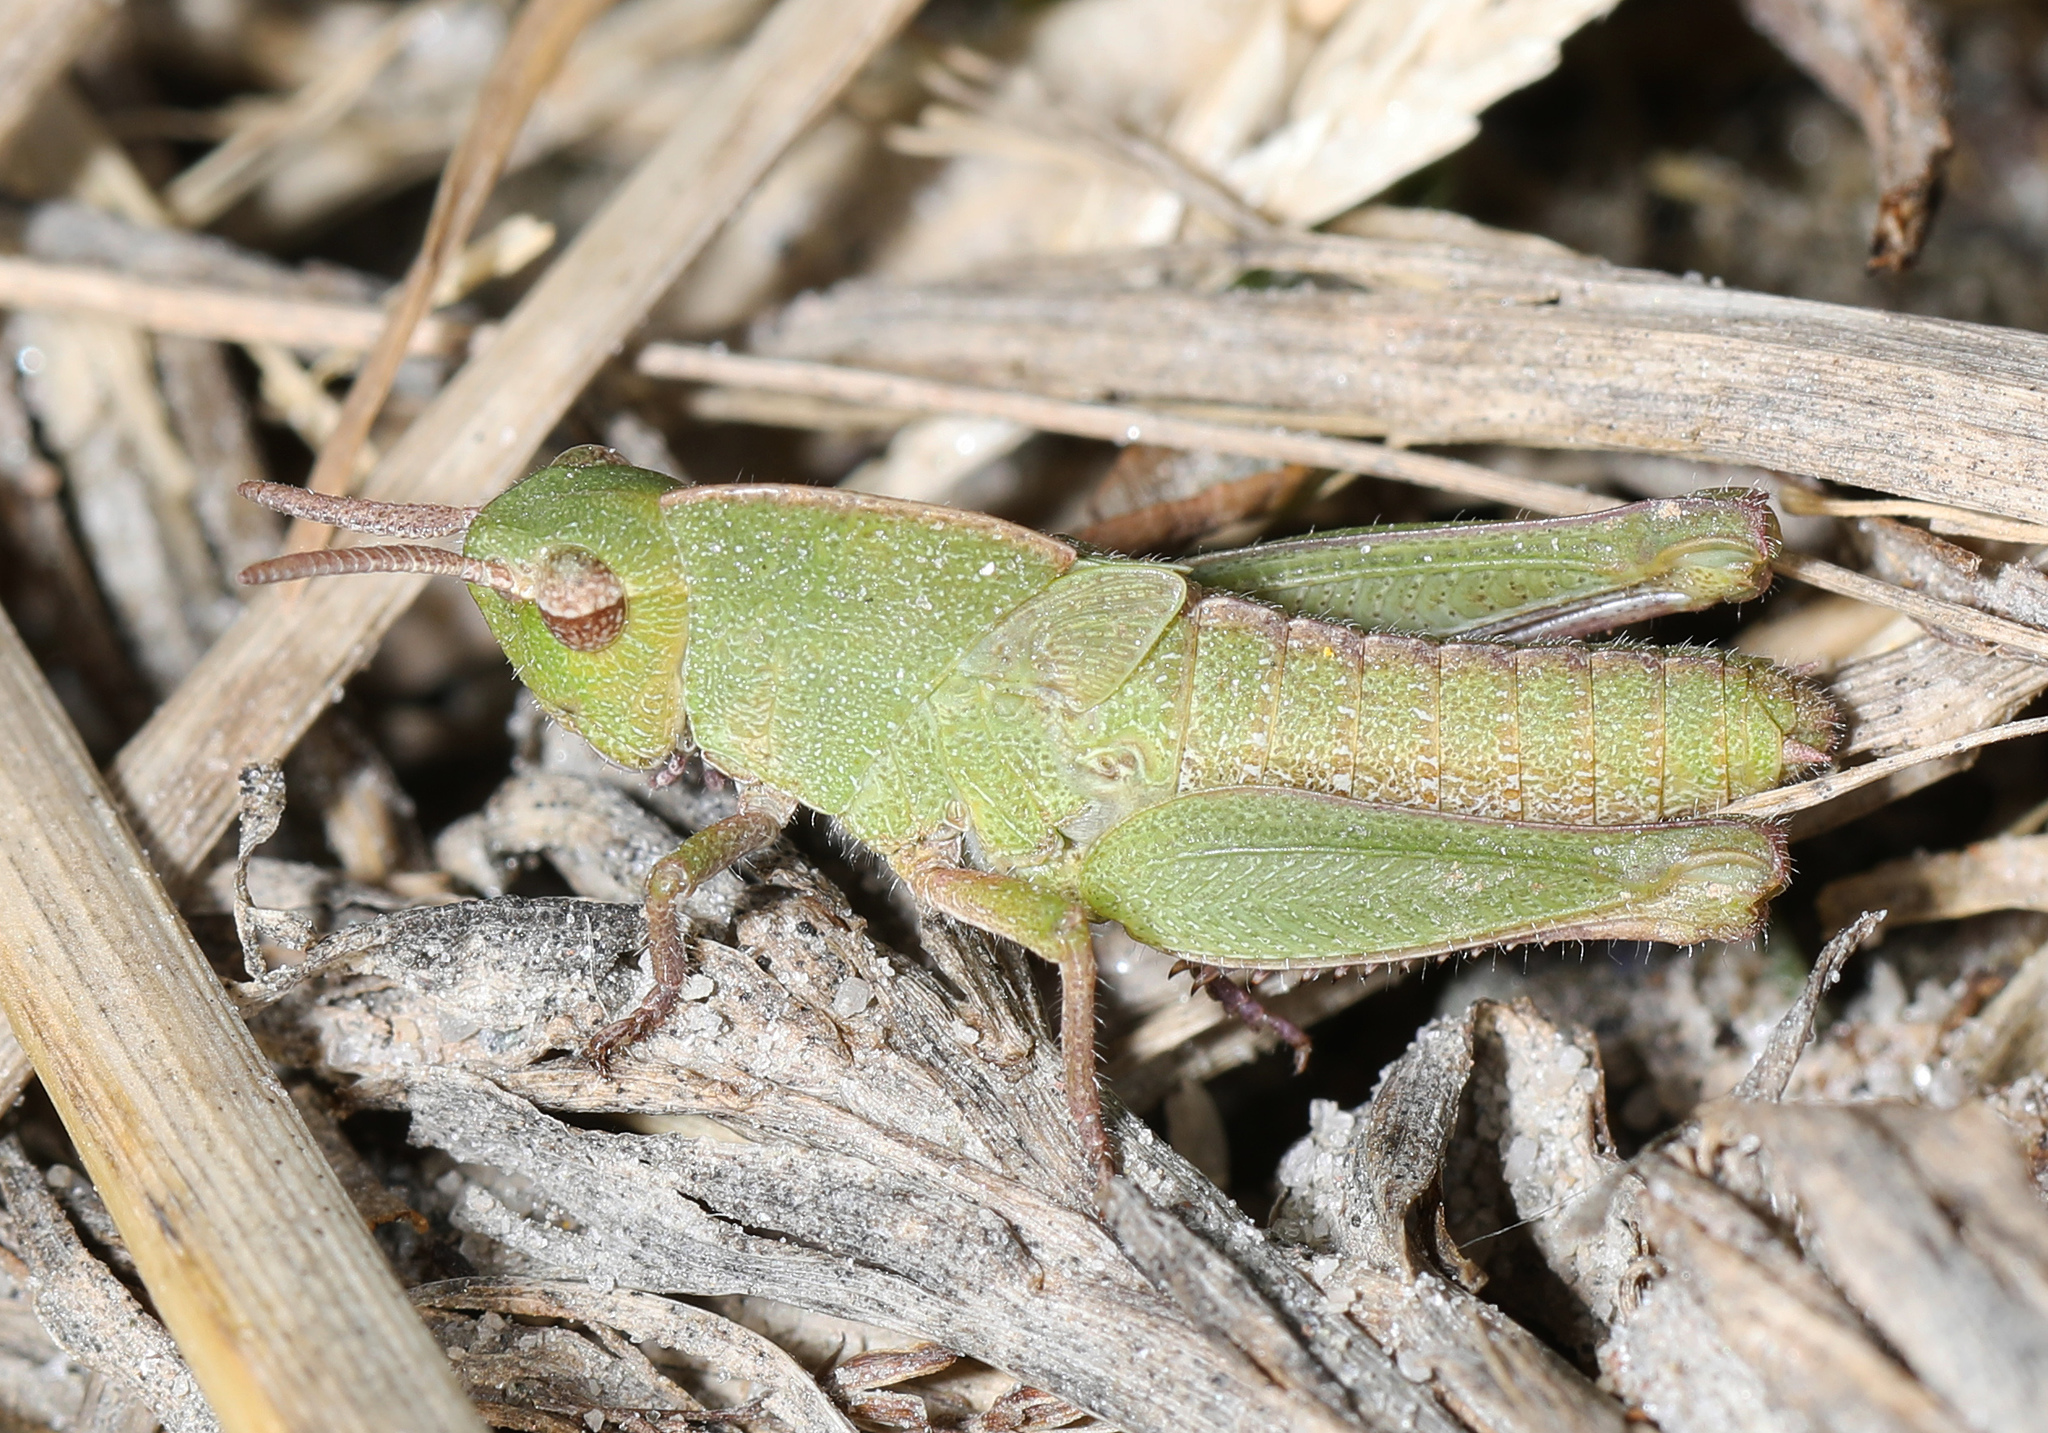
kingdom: Animalia
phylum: Arthropoda
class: Insecta
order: Orthoptera
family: Acrididae
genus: Chortophaga
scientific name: Chortophaga viridifasciata
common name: Green-striped grasshopper
